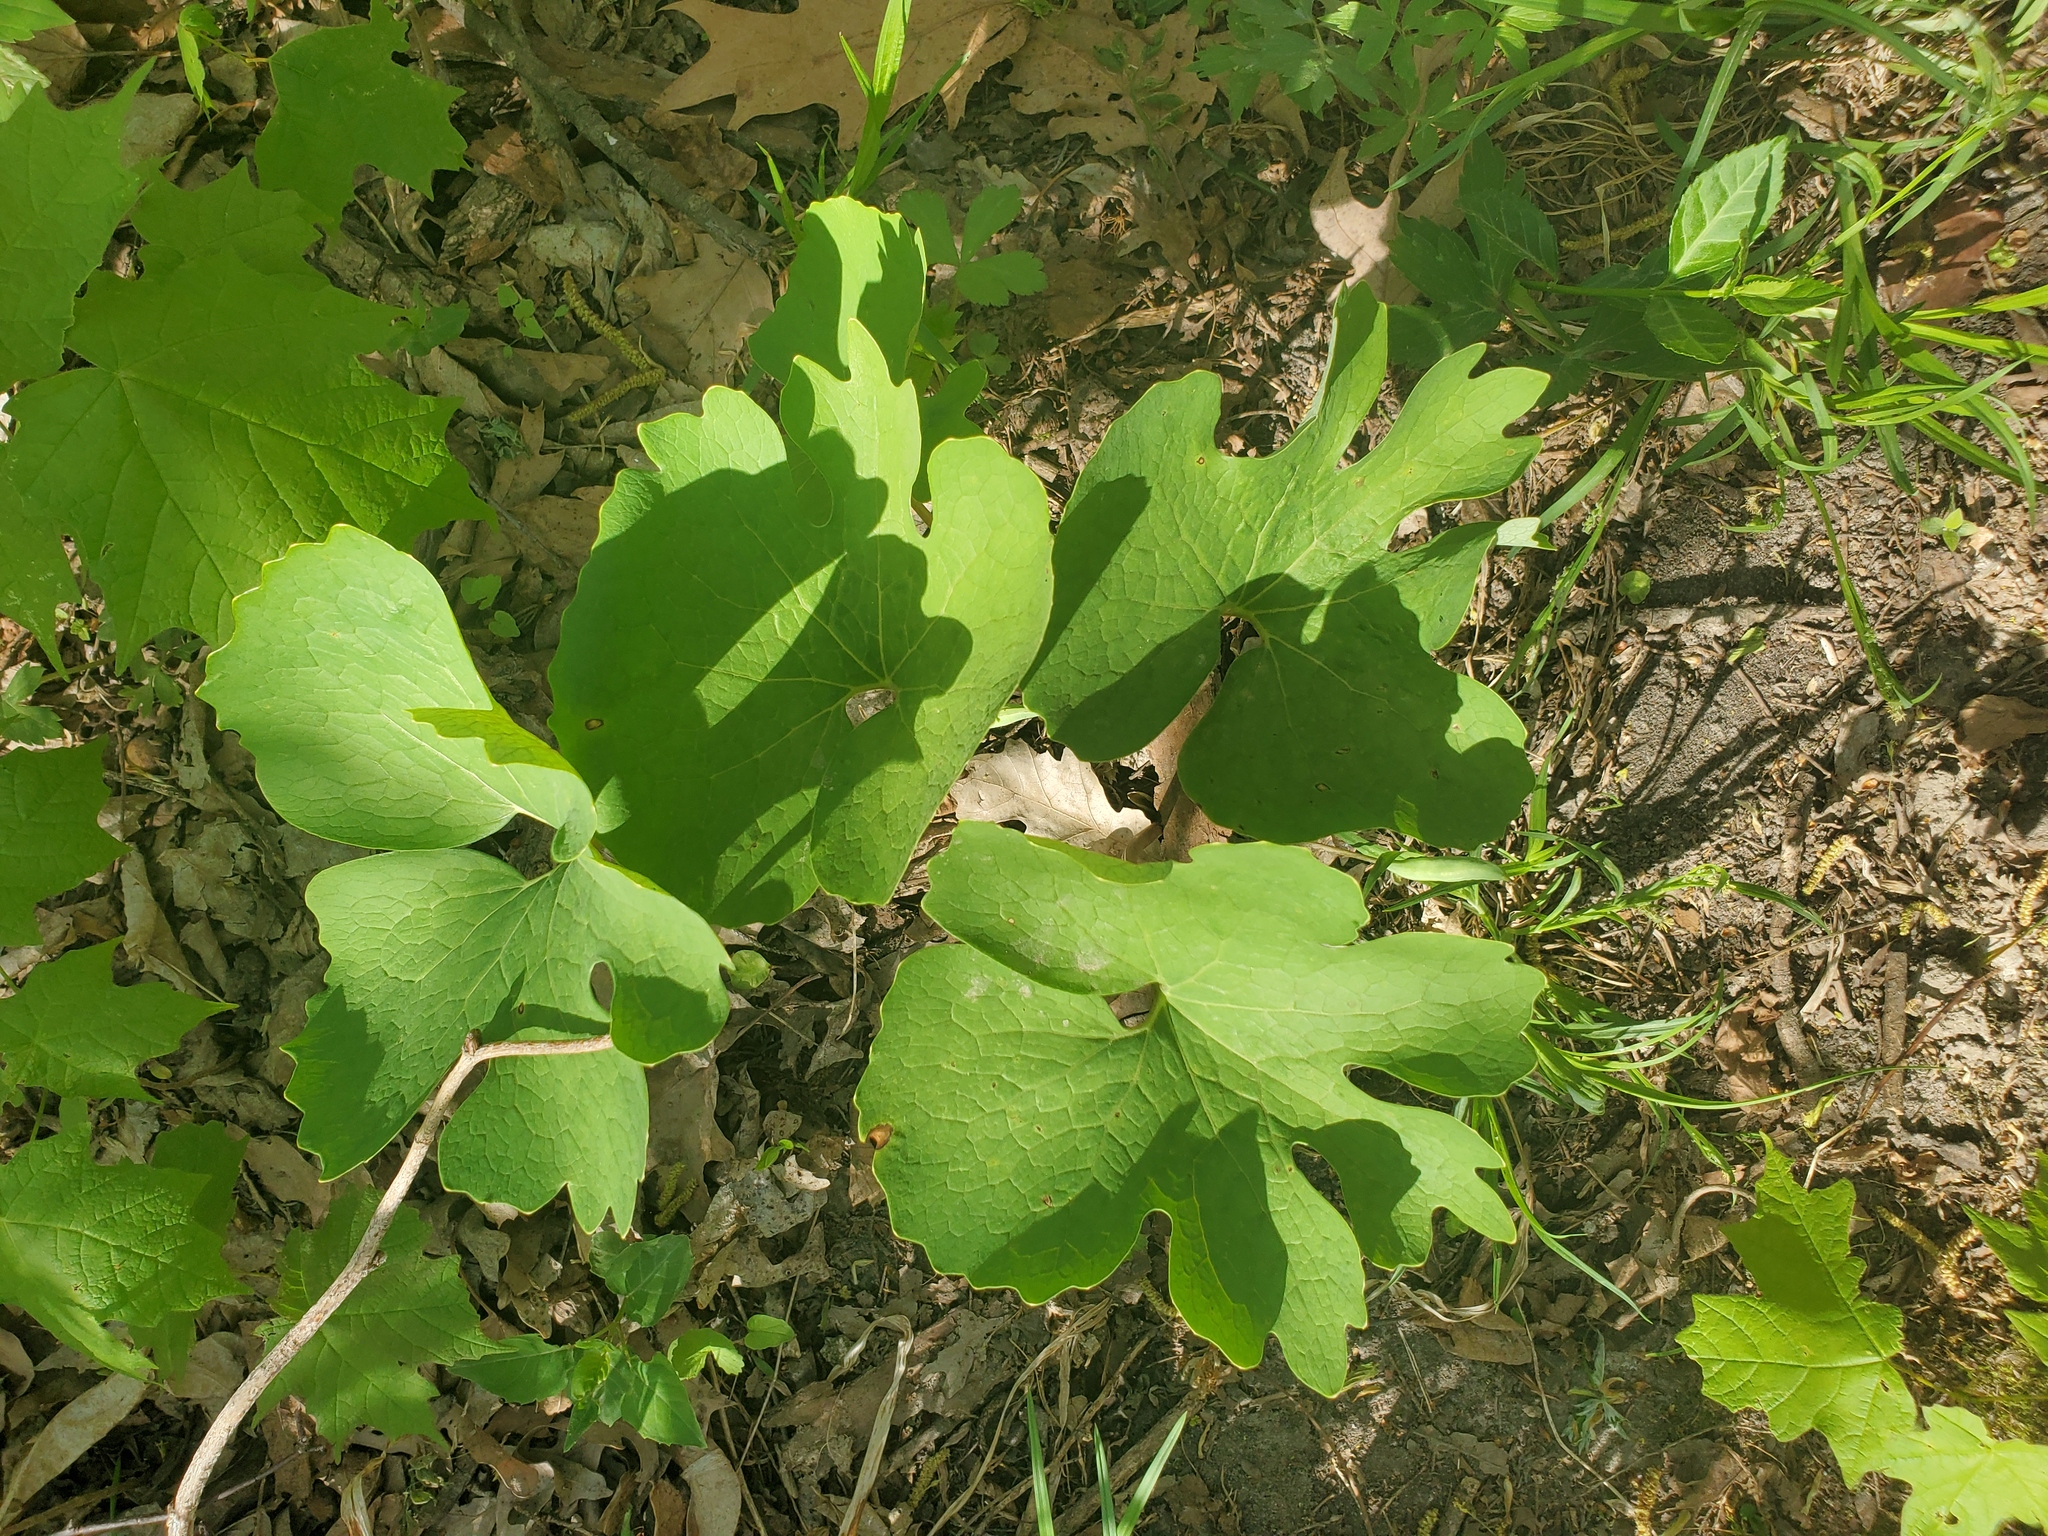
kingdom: Plantae
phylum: Tracheophyta
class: Magnoliopsida
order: Ranunculales
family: Papaveraceae
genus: Sanguinaria
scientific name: Sanguinaria canadensis
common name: Bloodroot
